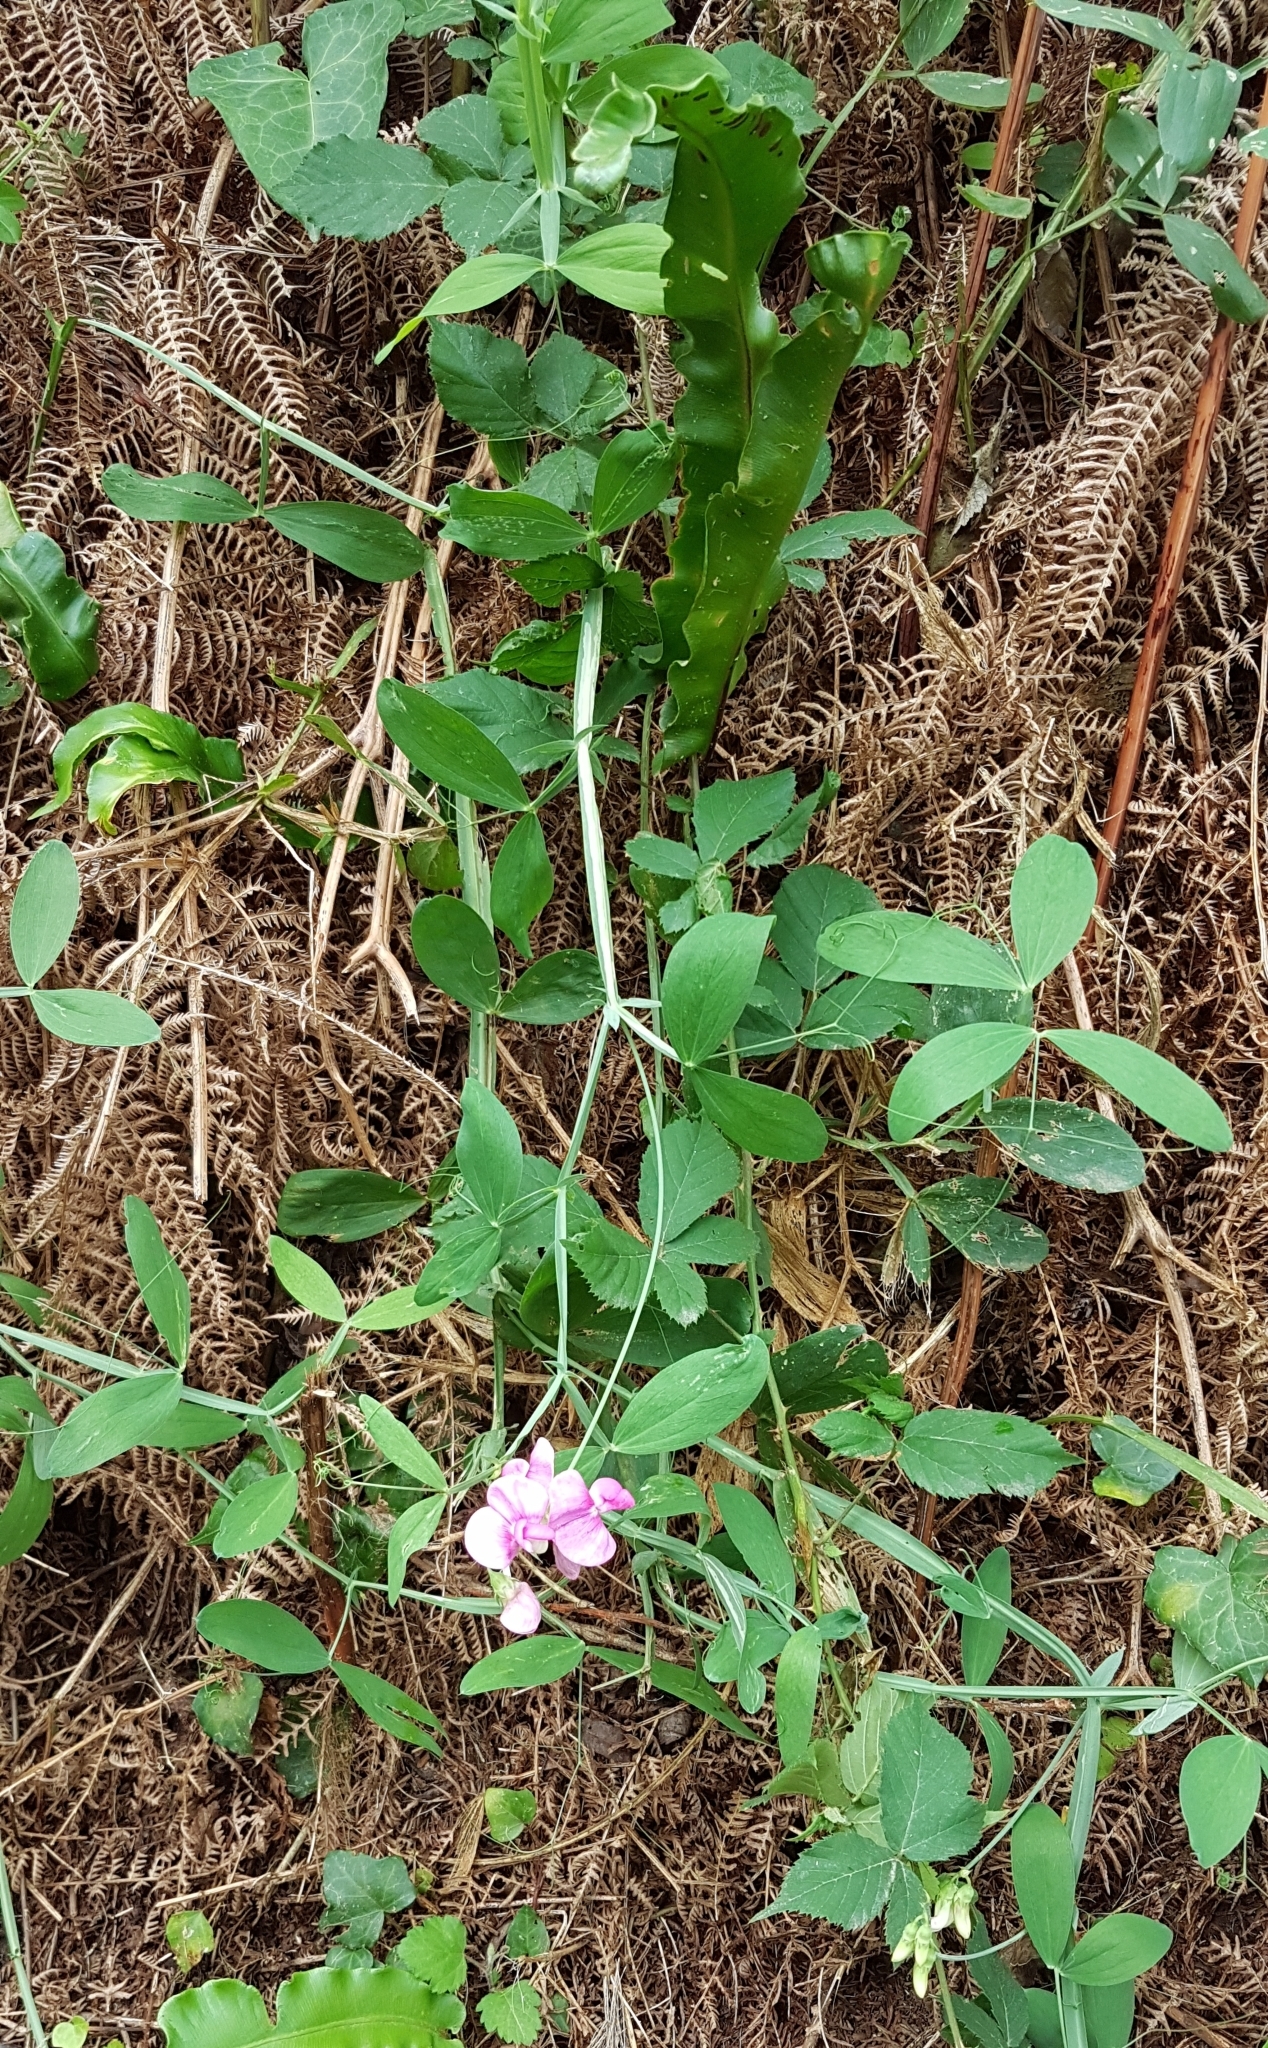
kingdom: Plantae
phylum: Tracheophyta
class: Magnoliopsida
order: Fabales
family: Fabaceae
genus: Lathyrus
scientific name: Lathyrus latifolius
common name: Perennial pea
